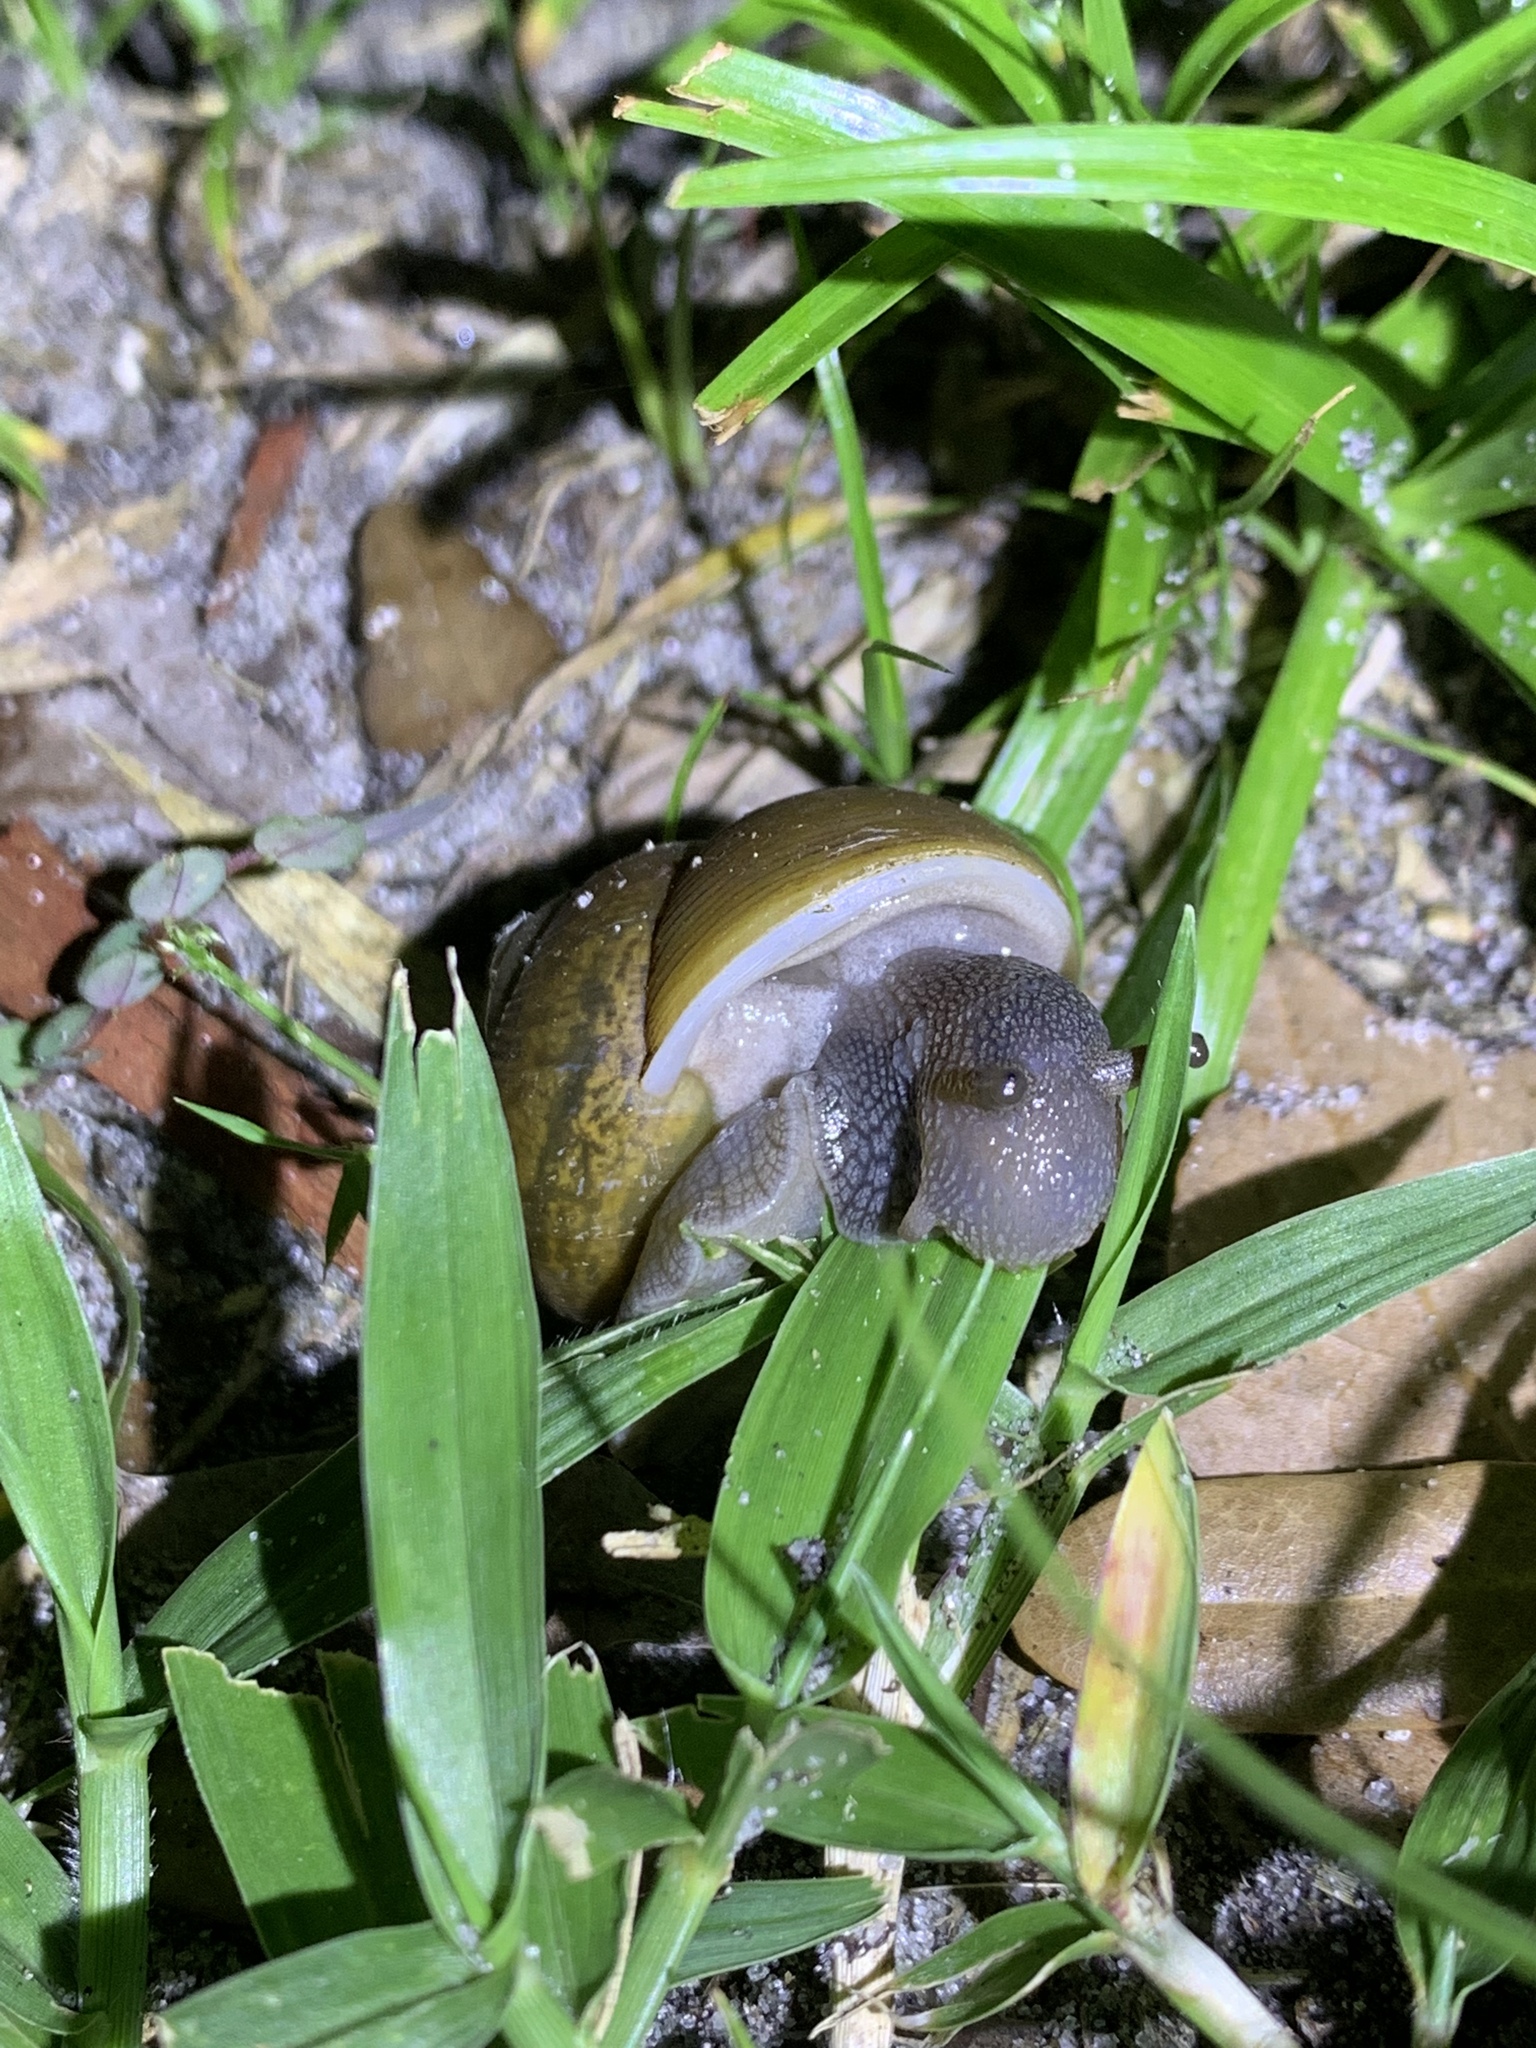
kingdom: Animalia
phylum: Mollusca
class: Gastropoda
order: Stylommatophora
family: Zachrysiidae
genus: Zachrysia
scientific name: Zachrysia provisoria
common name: Garden zachrysia
